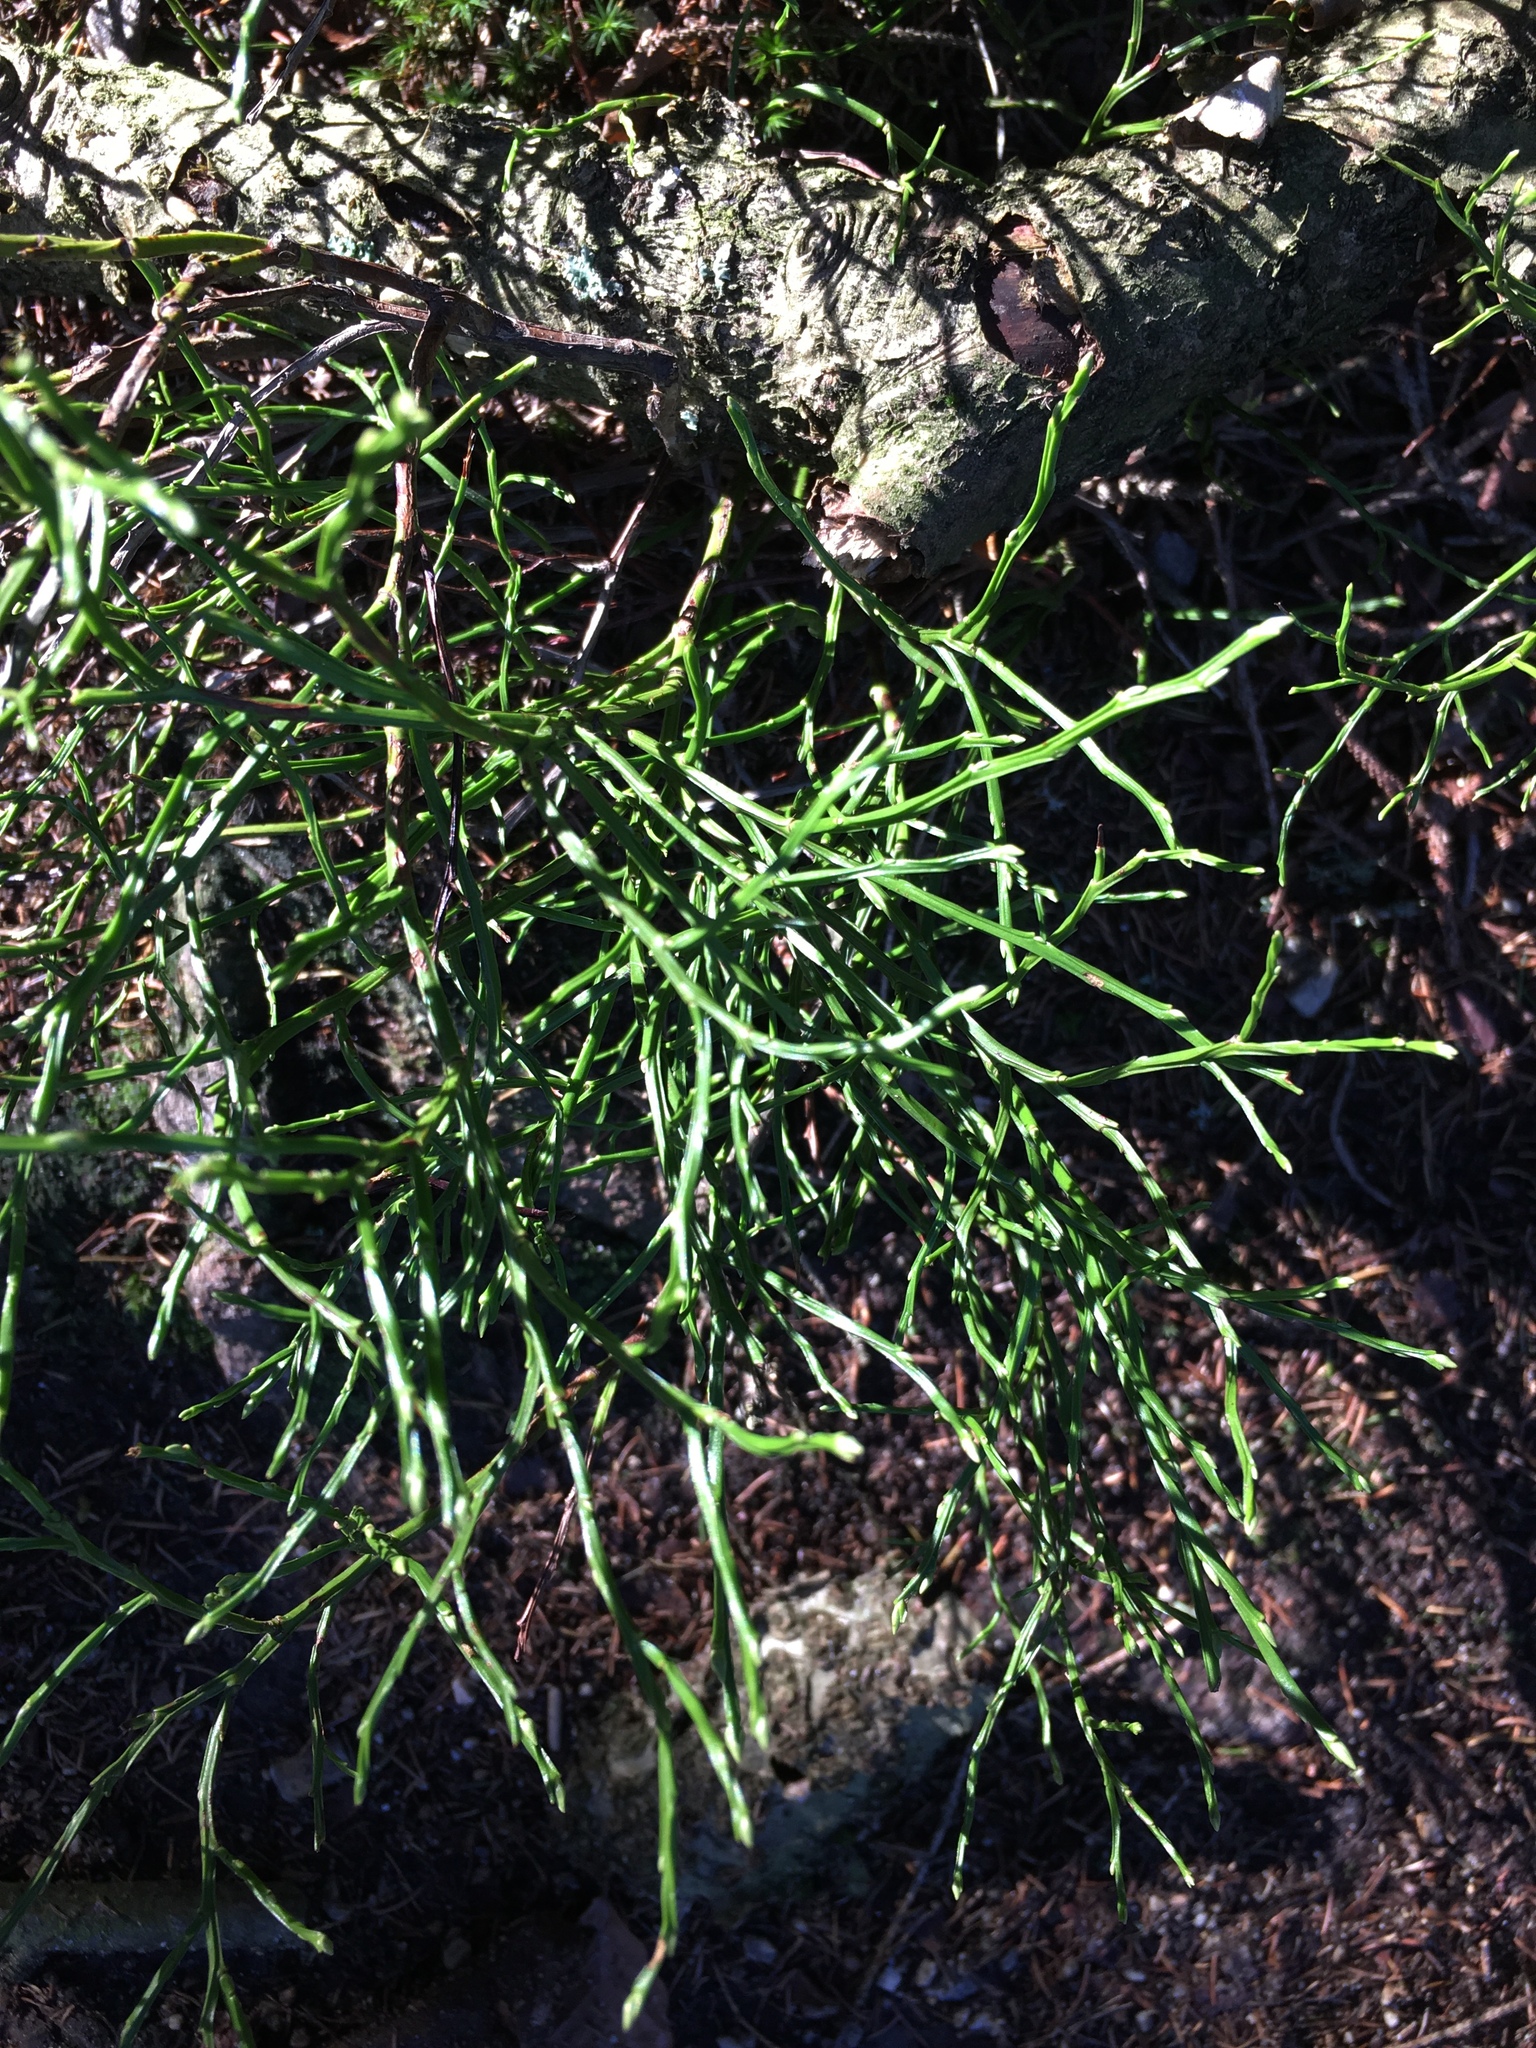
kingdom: Plantae
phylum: Tracheophyta
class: Magnoliopsida
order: Ericales
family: Ericaceae
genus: Vaccinium
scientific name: Vaccinium myrtillus
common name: Bilberry
